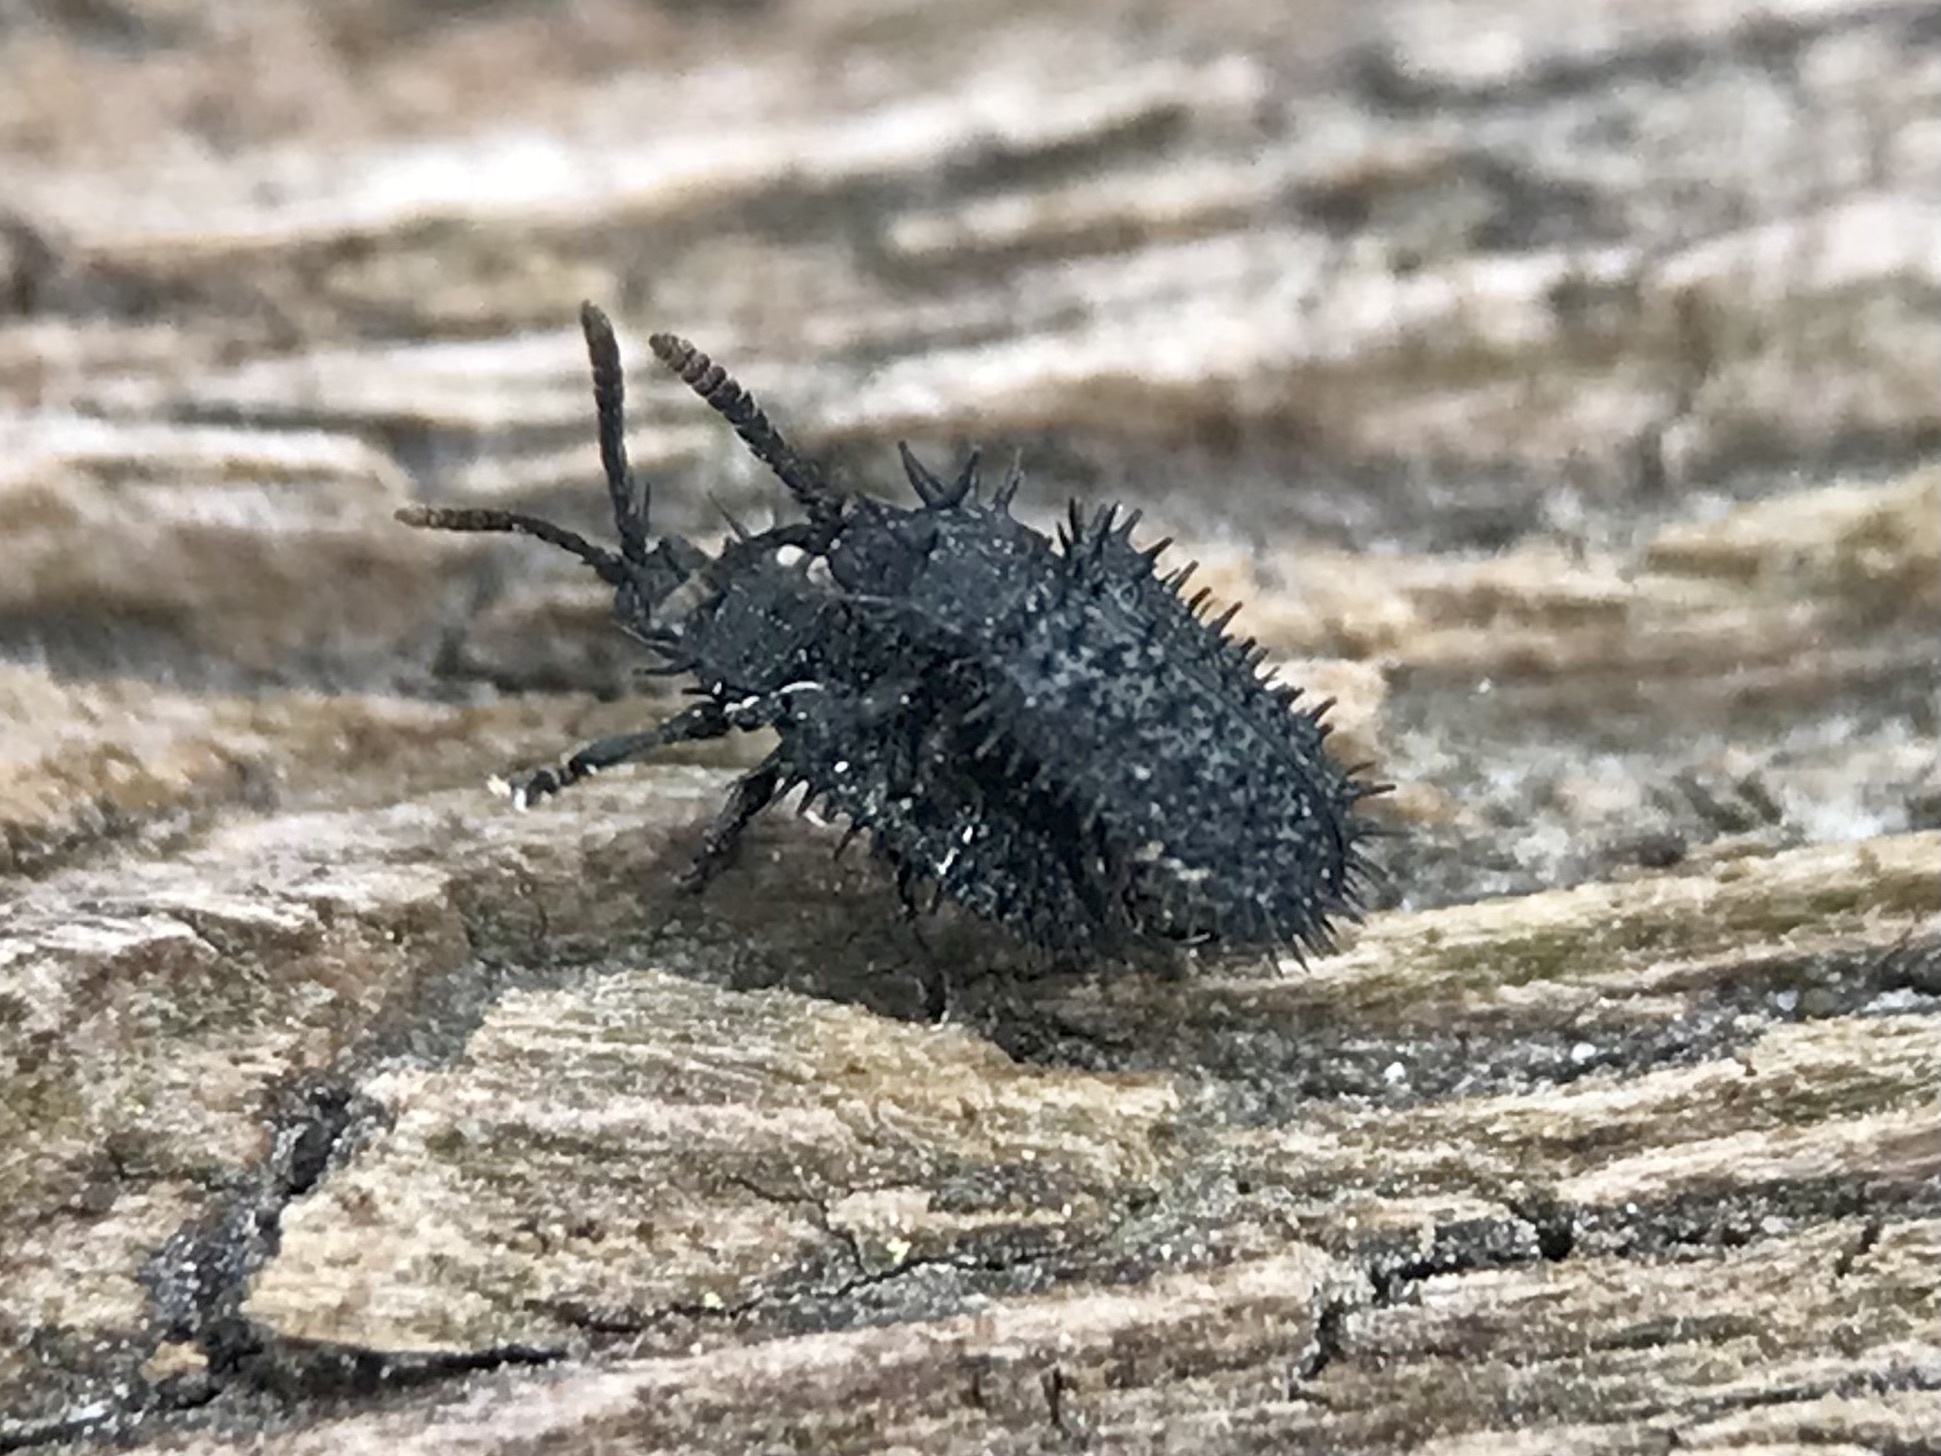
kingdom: Animalia
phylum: Arthropoda
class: Insecta
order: Coleoptera
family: Chrysomelidae
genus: Hispa
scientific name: Hispa atra
